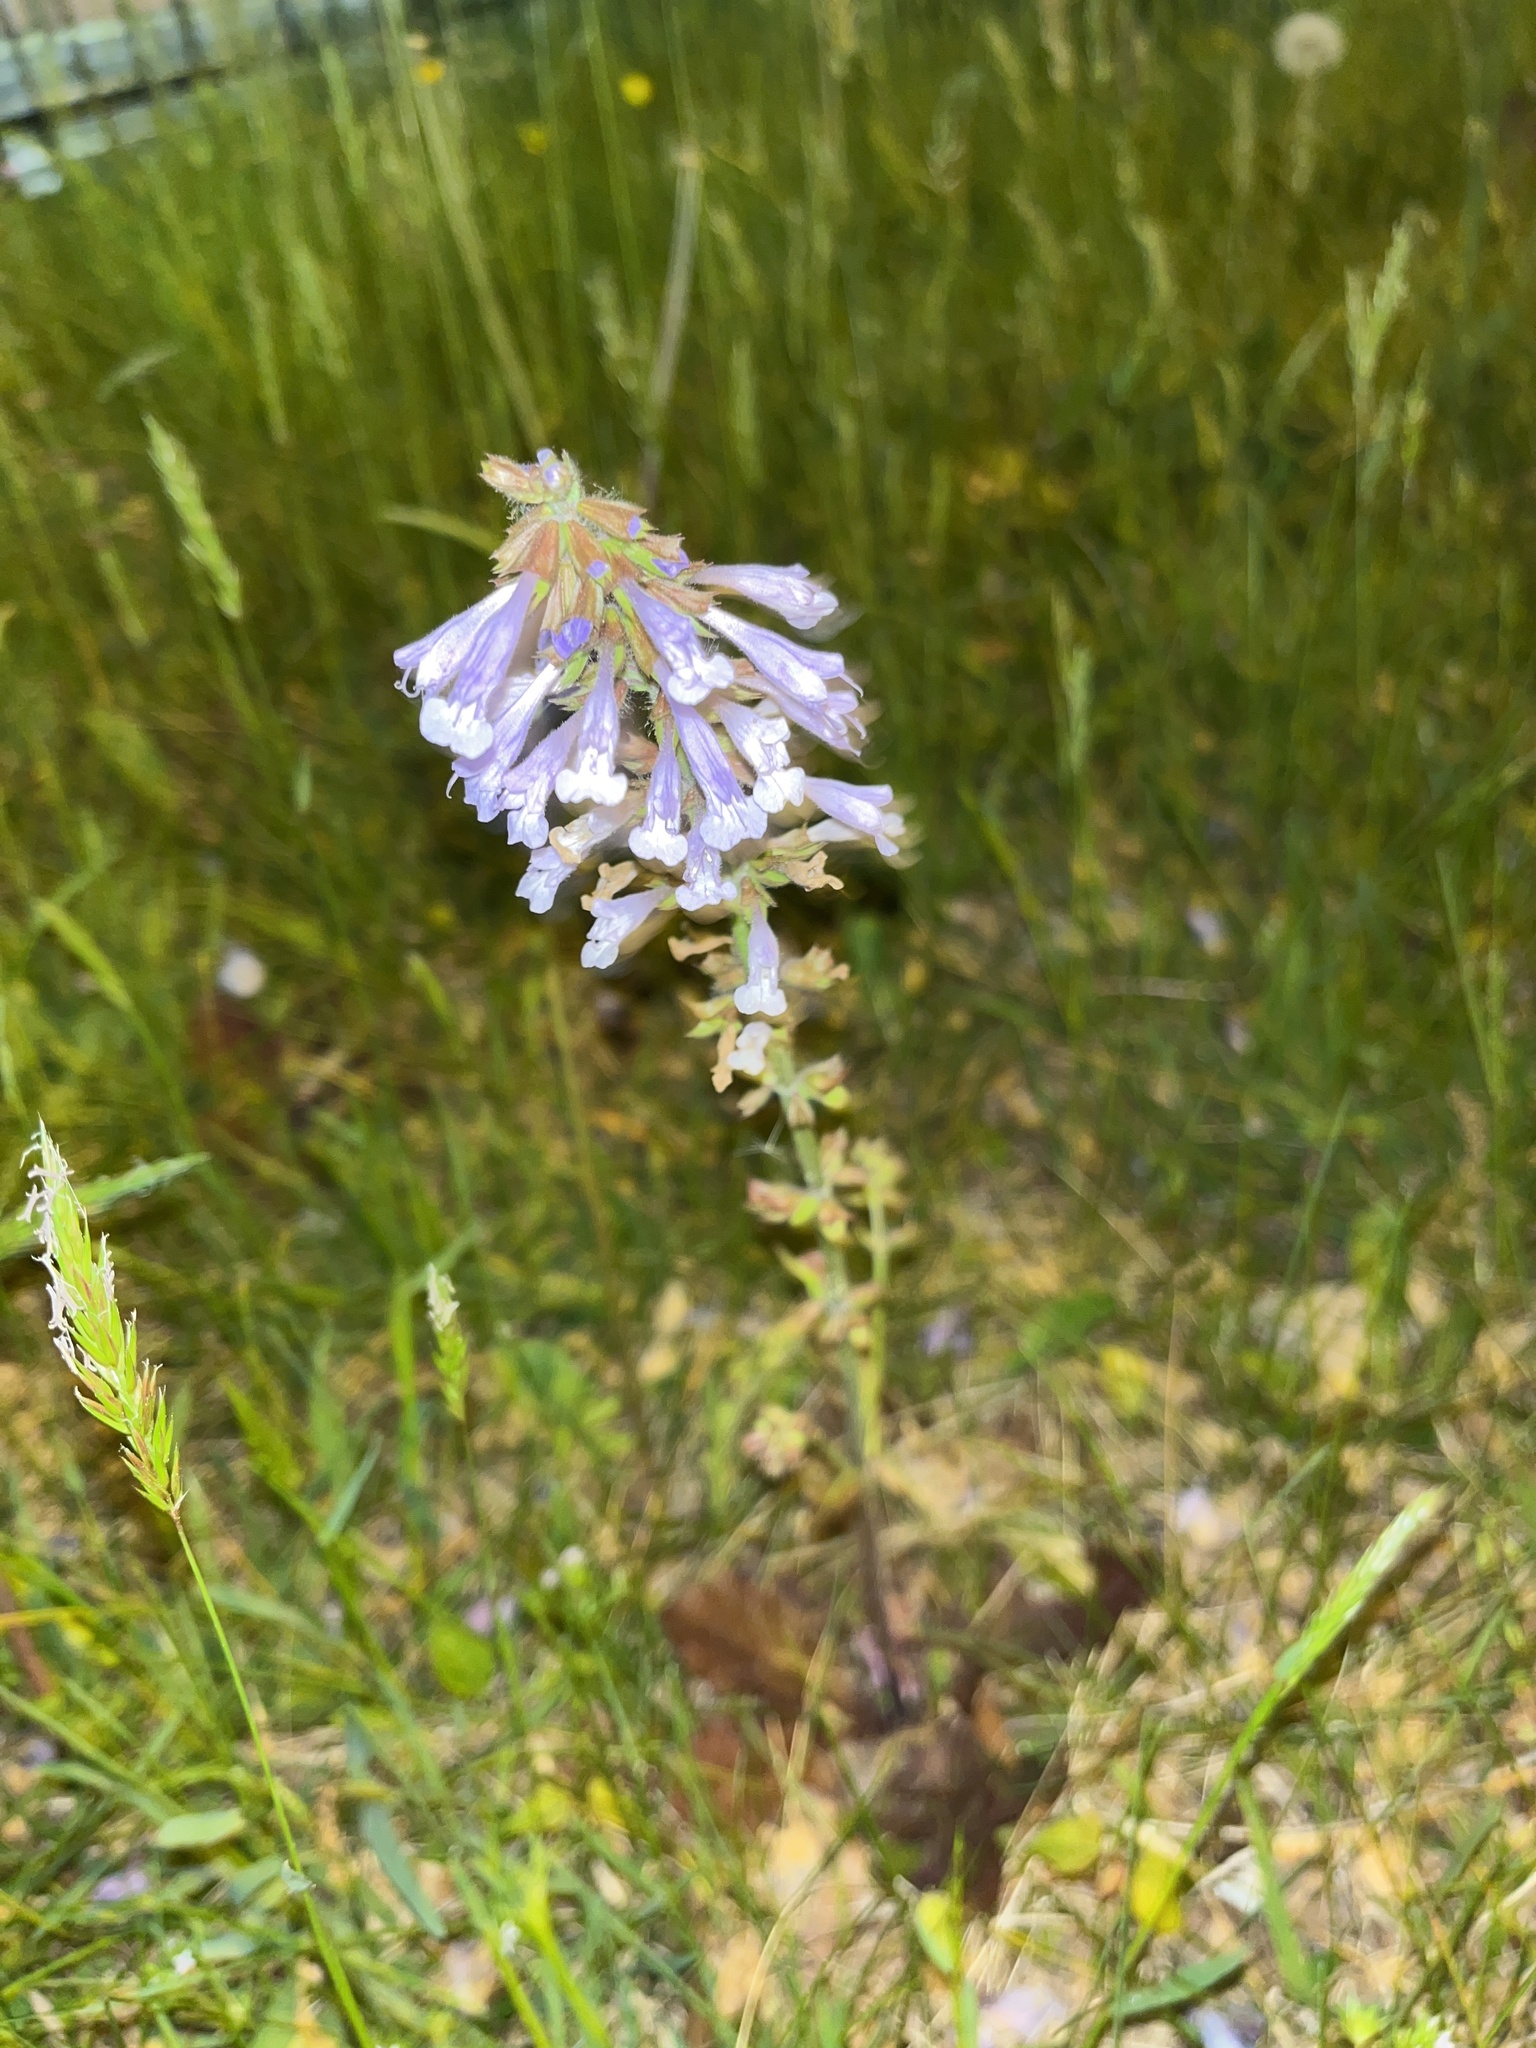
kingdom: Plantae
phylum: Tracheophyta
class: Magnoliopsida
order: Lamiales
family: Lamiaceae
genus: Salvia
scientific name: Salvia lyrata
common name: Cancerweed
